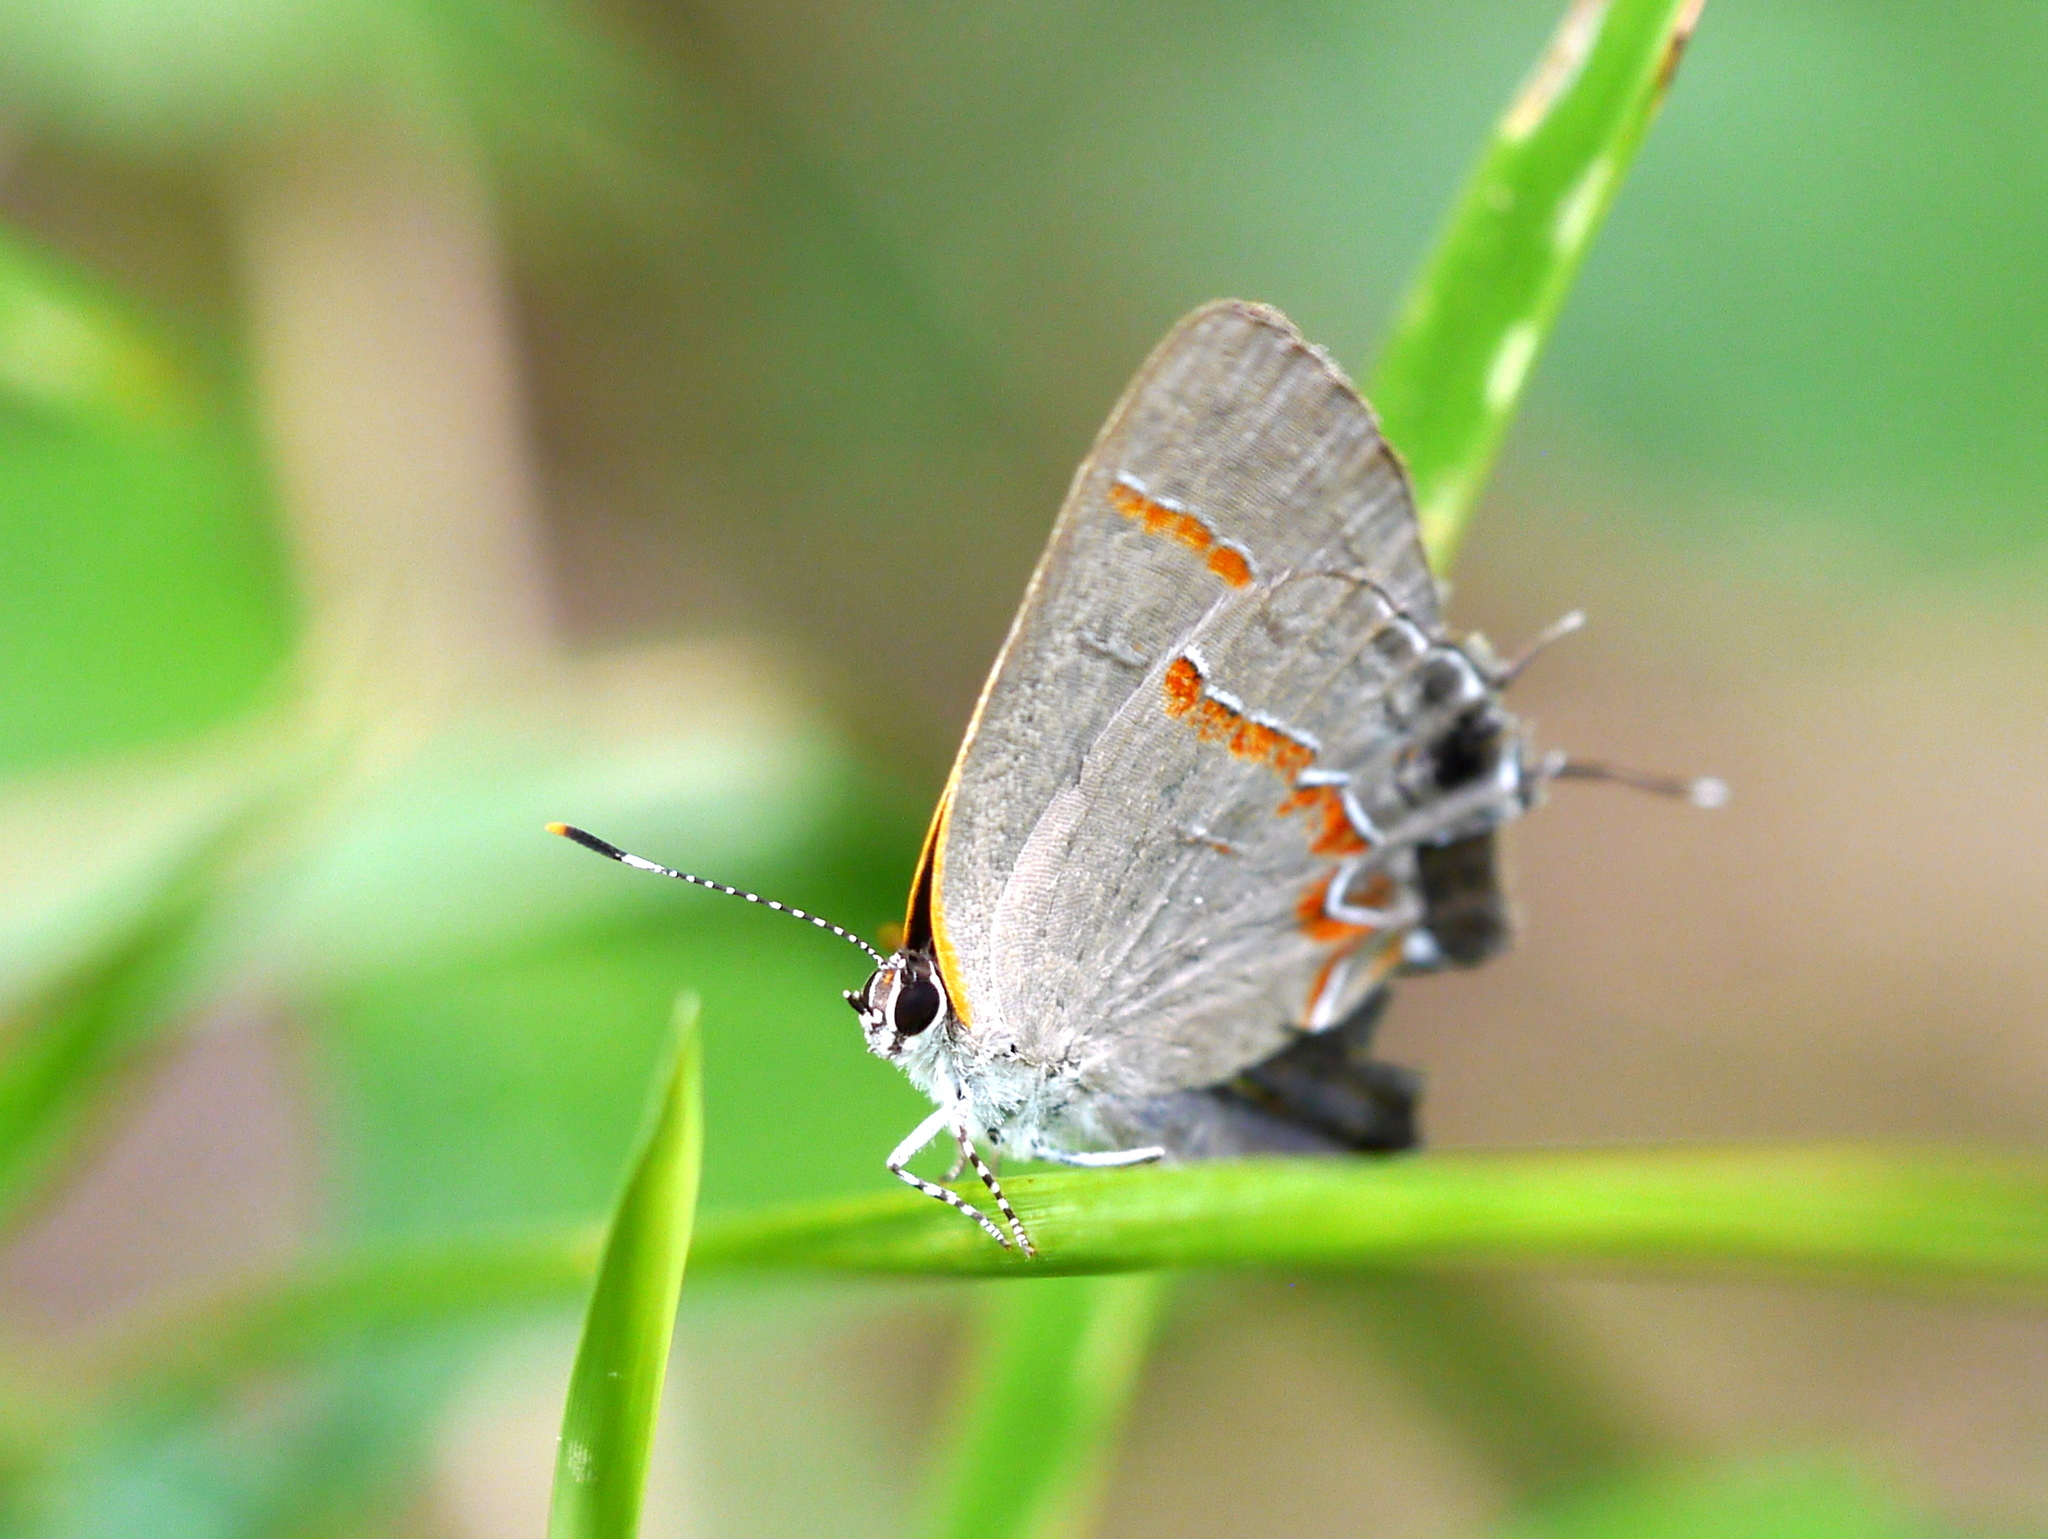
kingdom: Animalia
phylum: Arthropoda
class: Insecta
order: Lepidoptera
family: Lycaenidae
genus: Calycopis
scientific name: Calycopis cecrops
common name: Red-banded hairstreak
